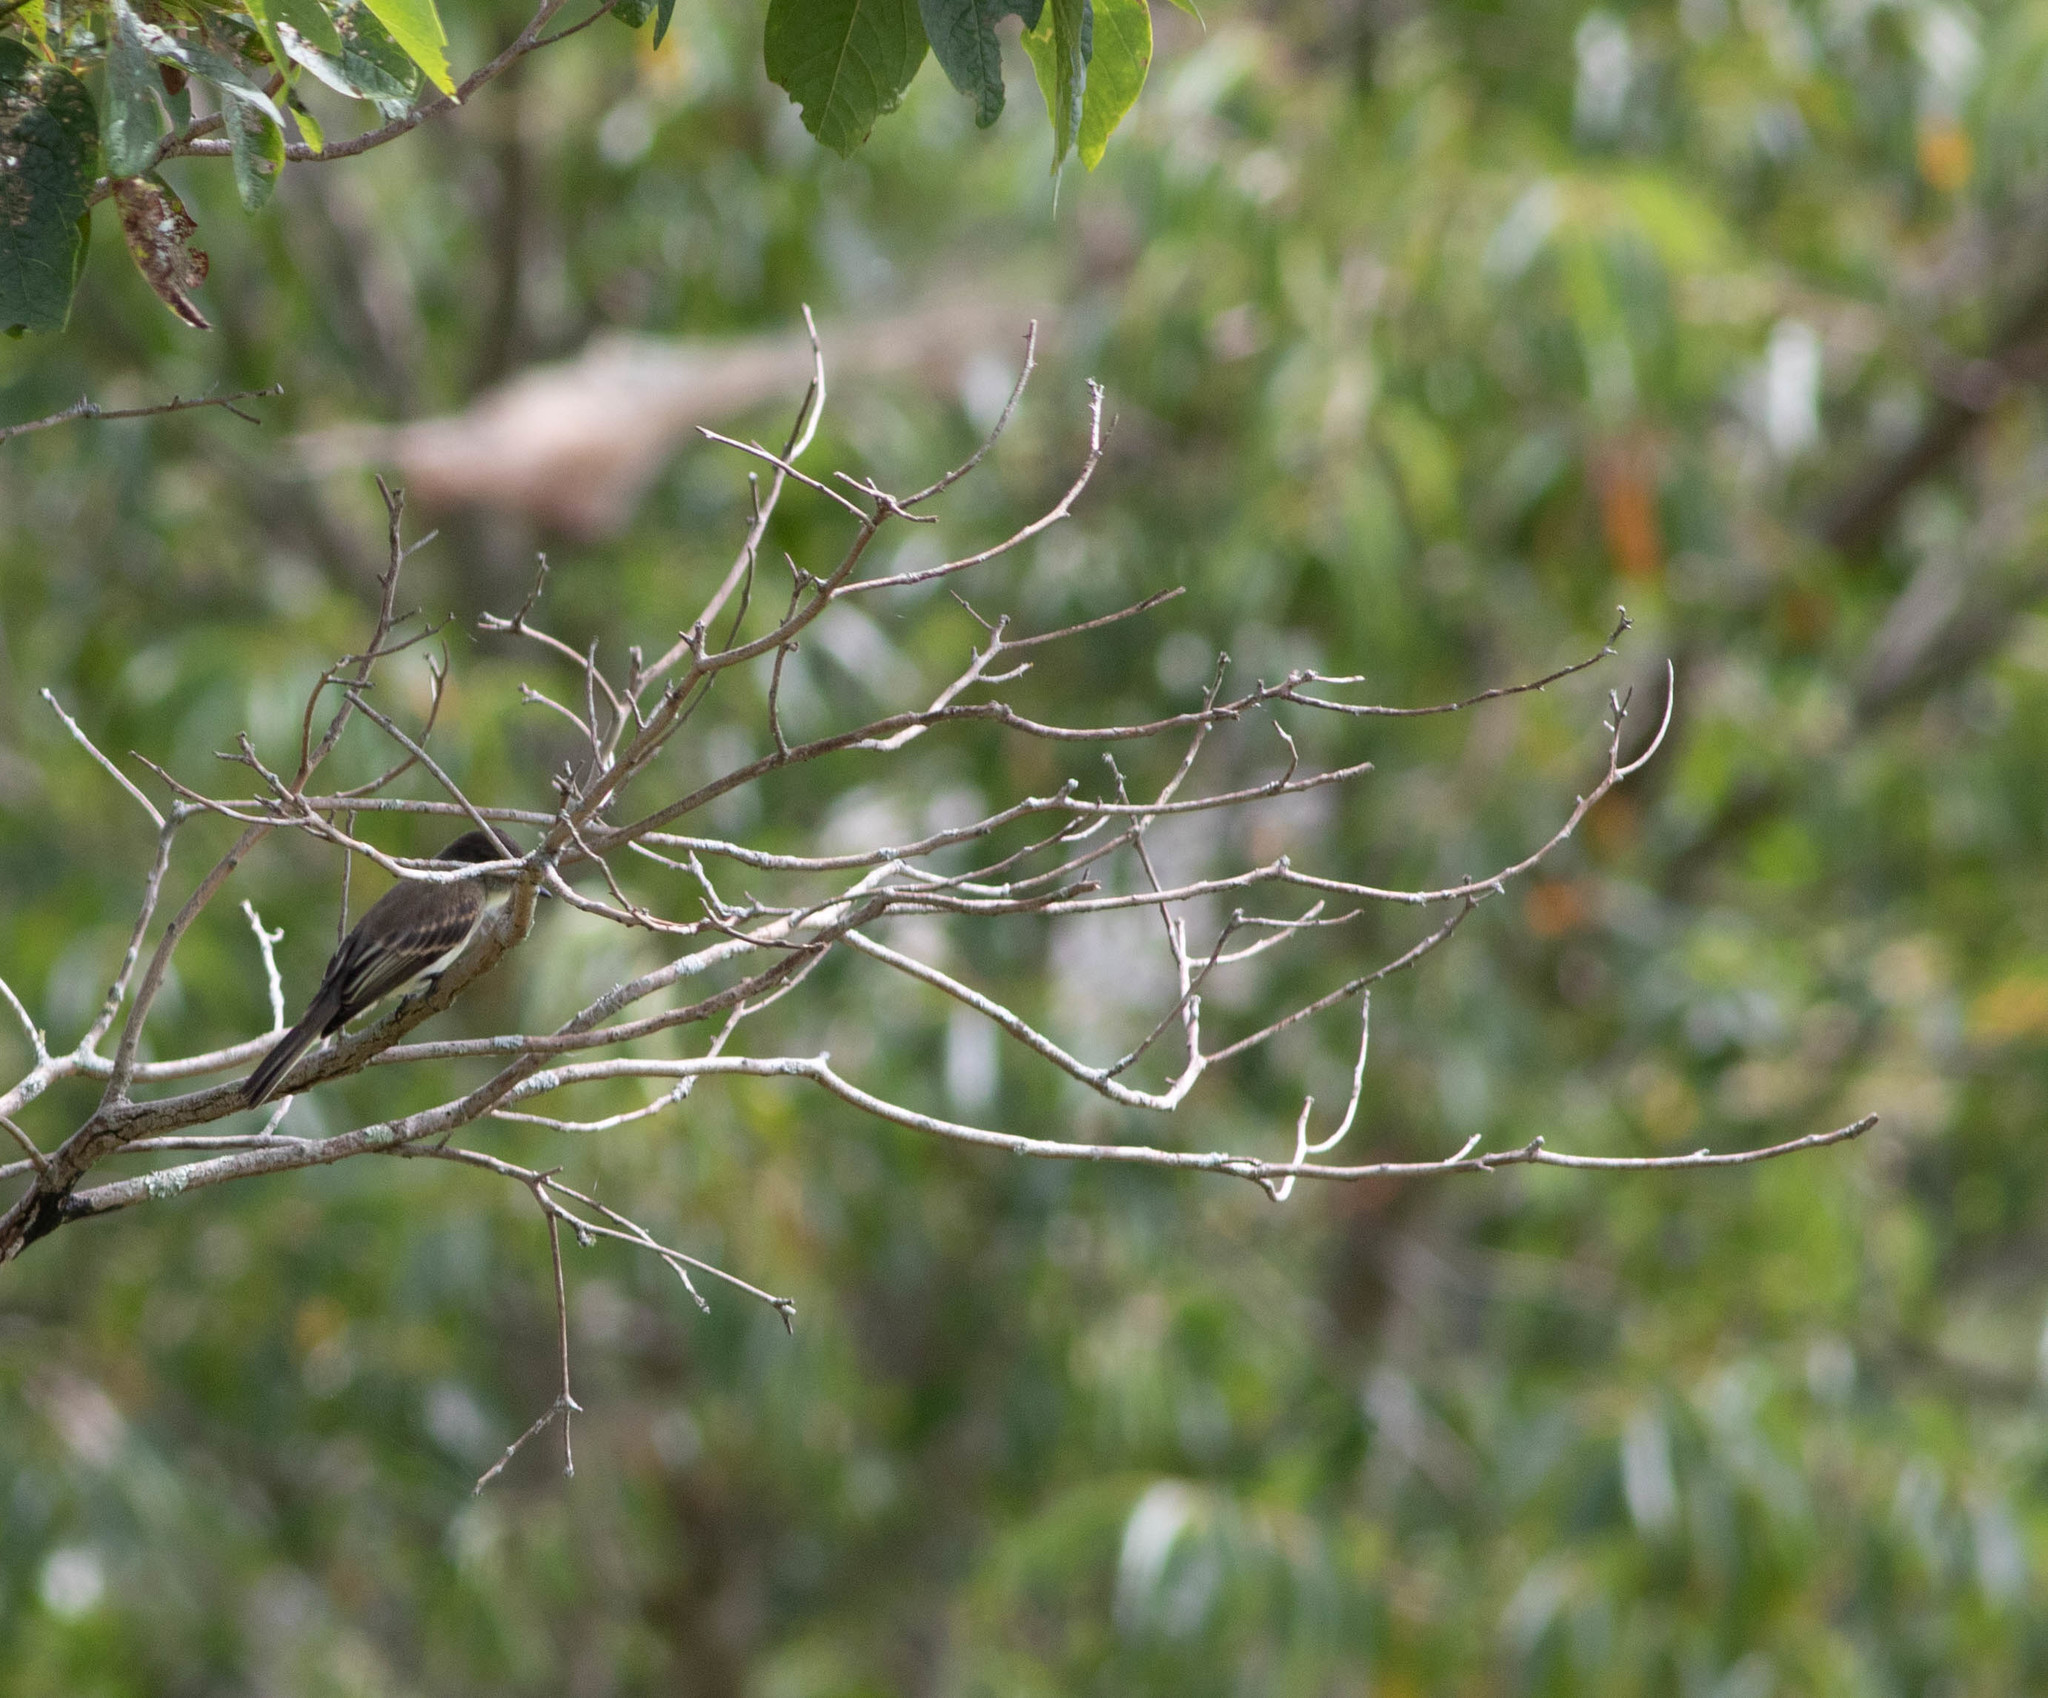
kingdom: Animalia
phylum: Chordata
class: Aves
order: Passeriformes
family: Tyrannidae
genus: Sayornis
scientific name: Sayornis phoebe
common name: Eastern phoebe
